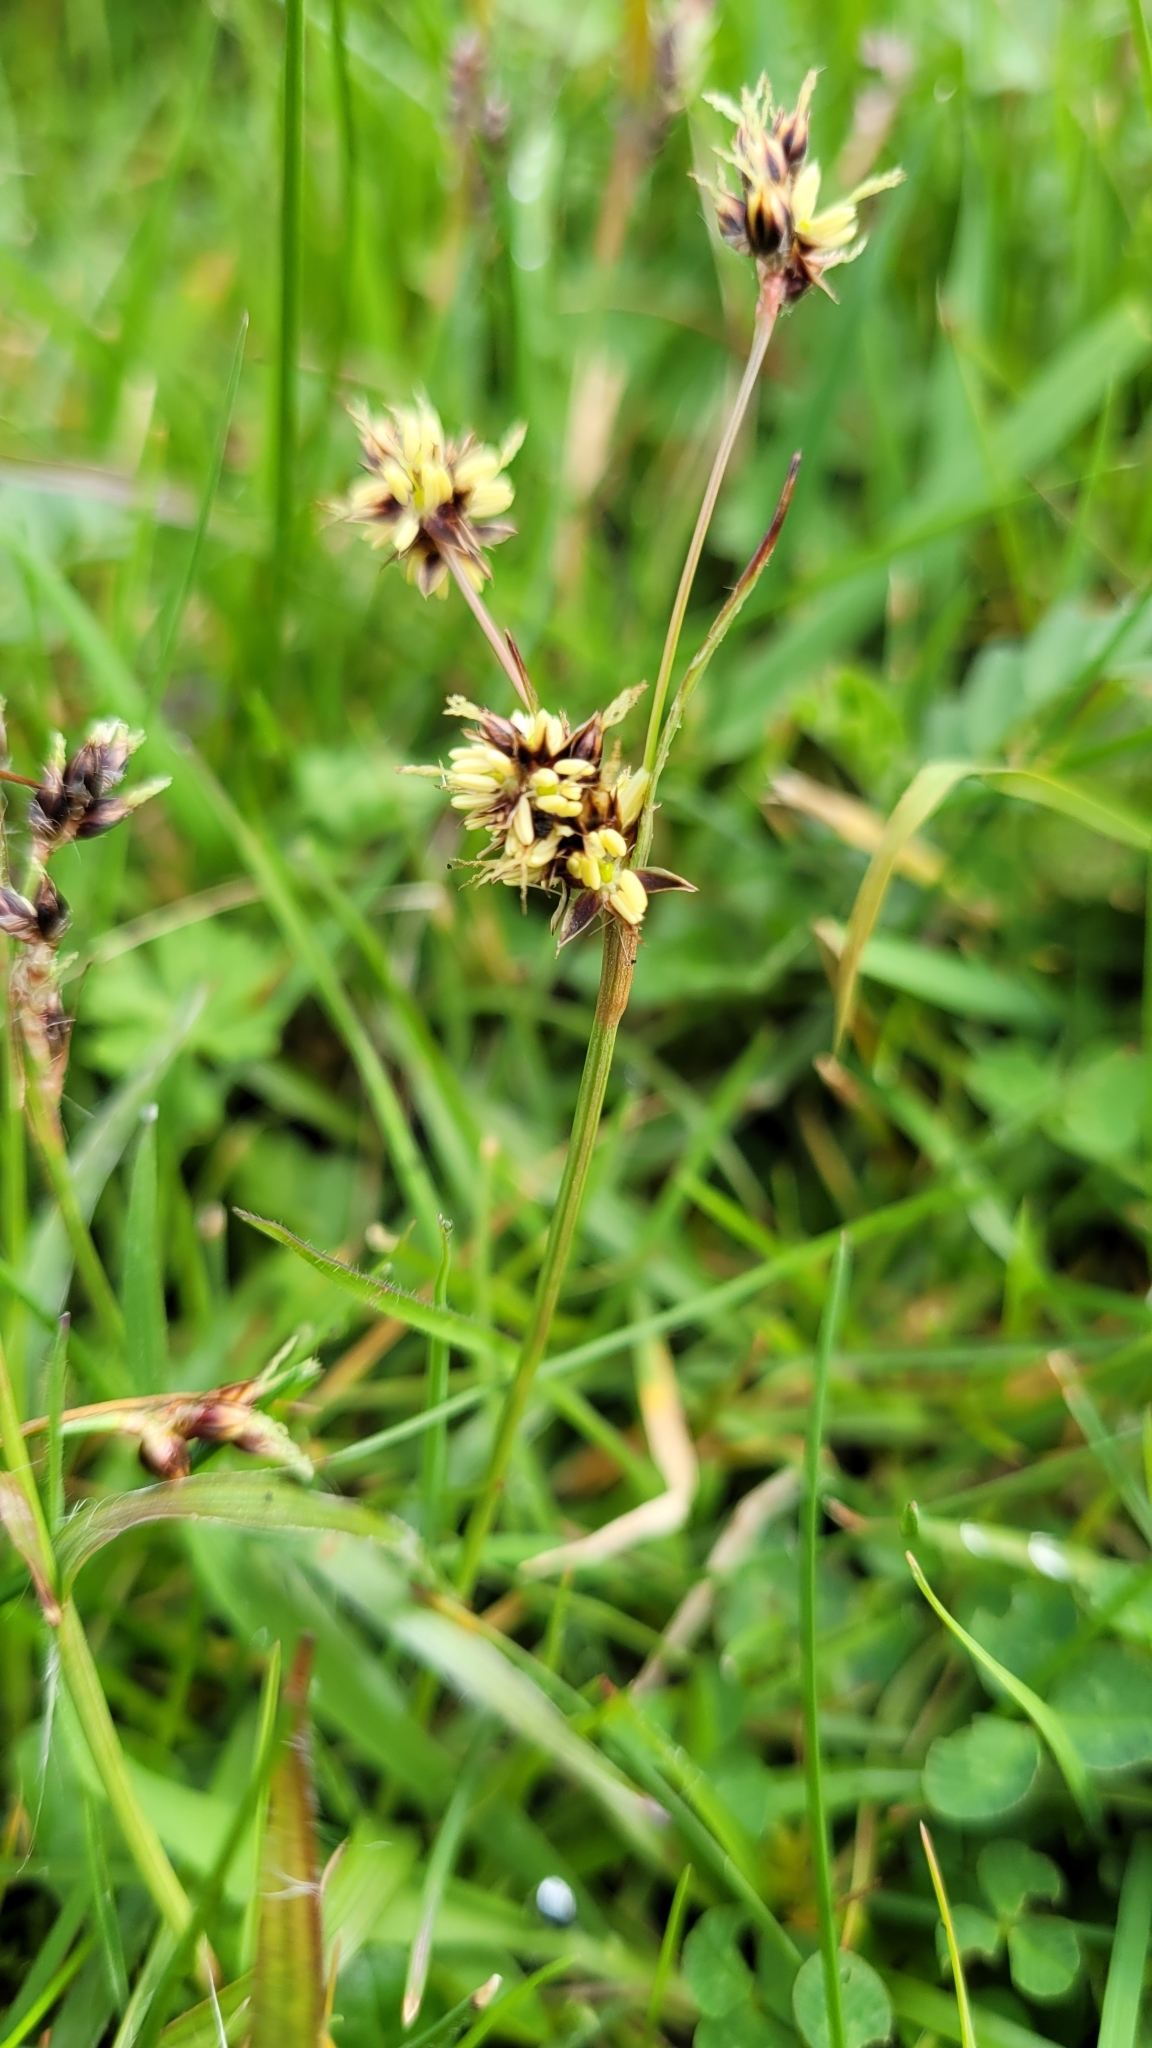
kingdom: Plantae
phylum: Tracheophyta
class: Liliopsida
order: Poales
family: Juncaceae
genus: Luzula
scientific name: Luzula campestris
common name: Field wood-rush
